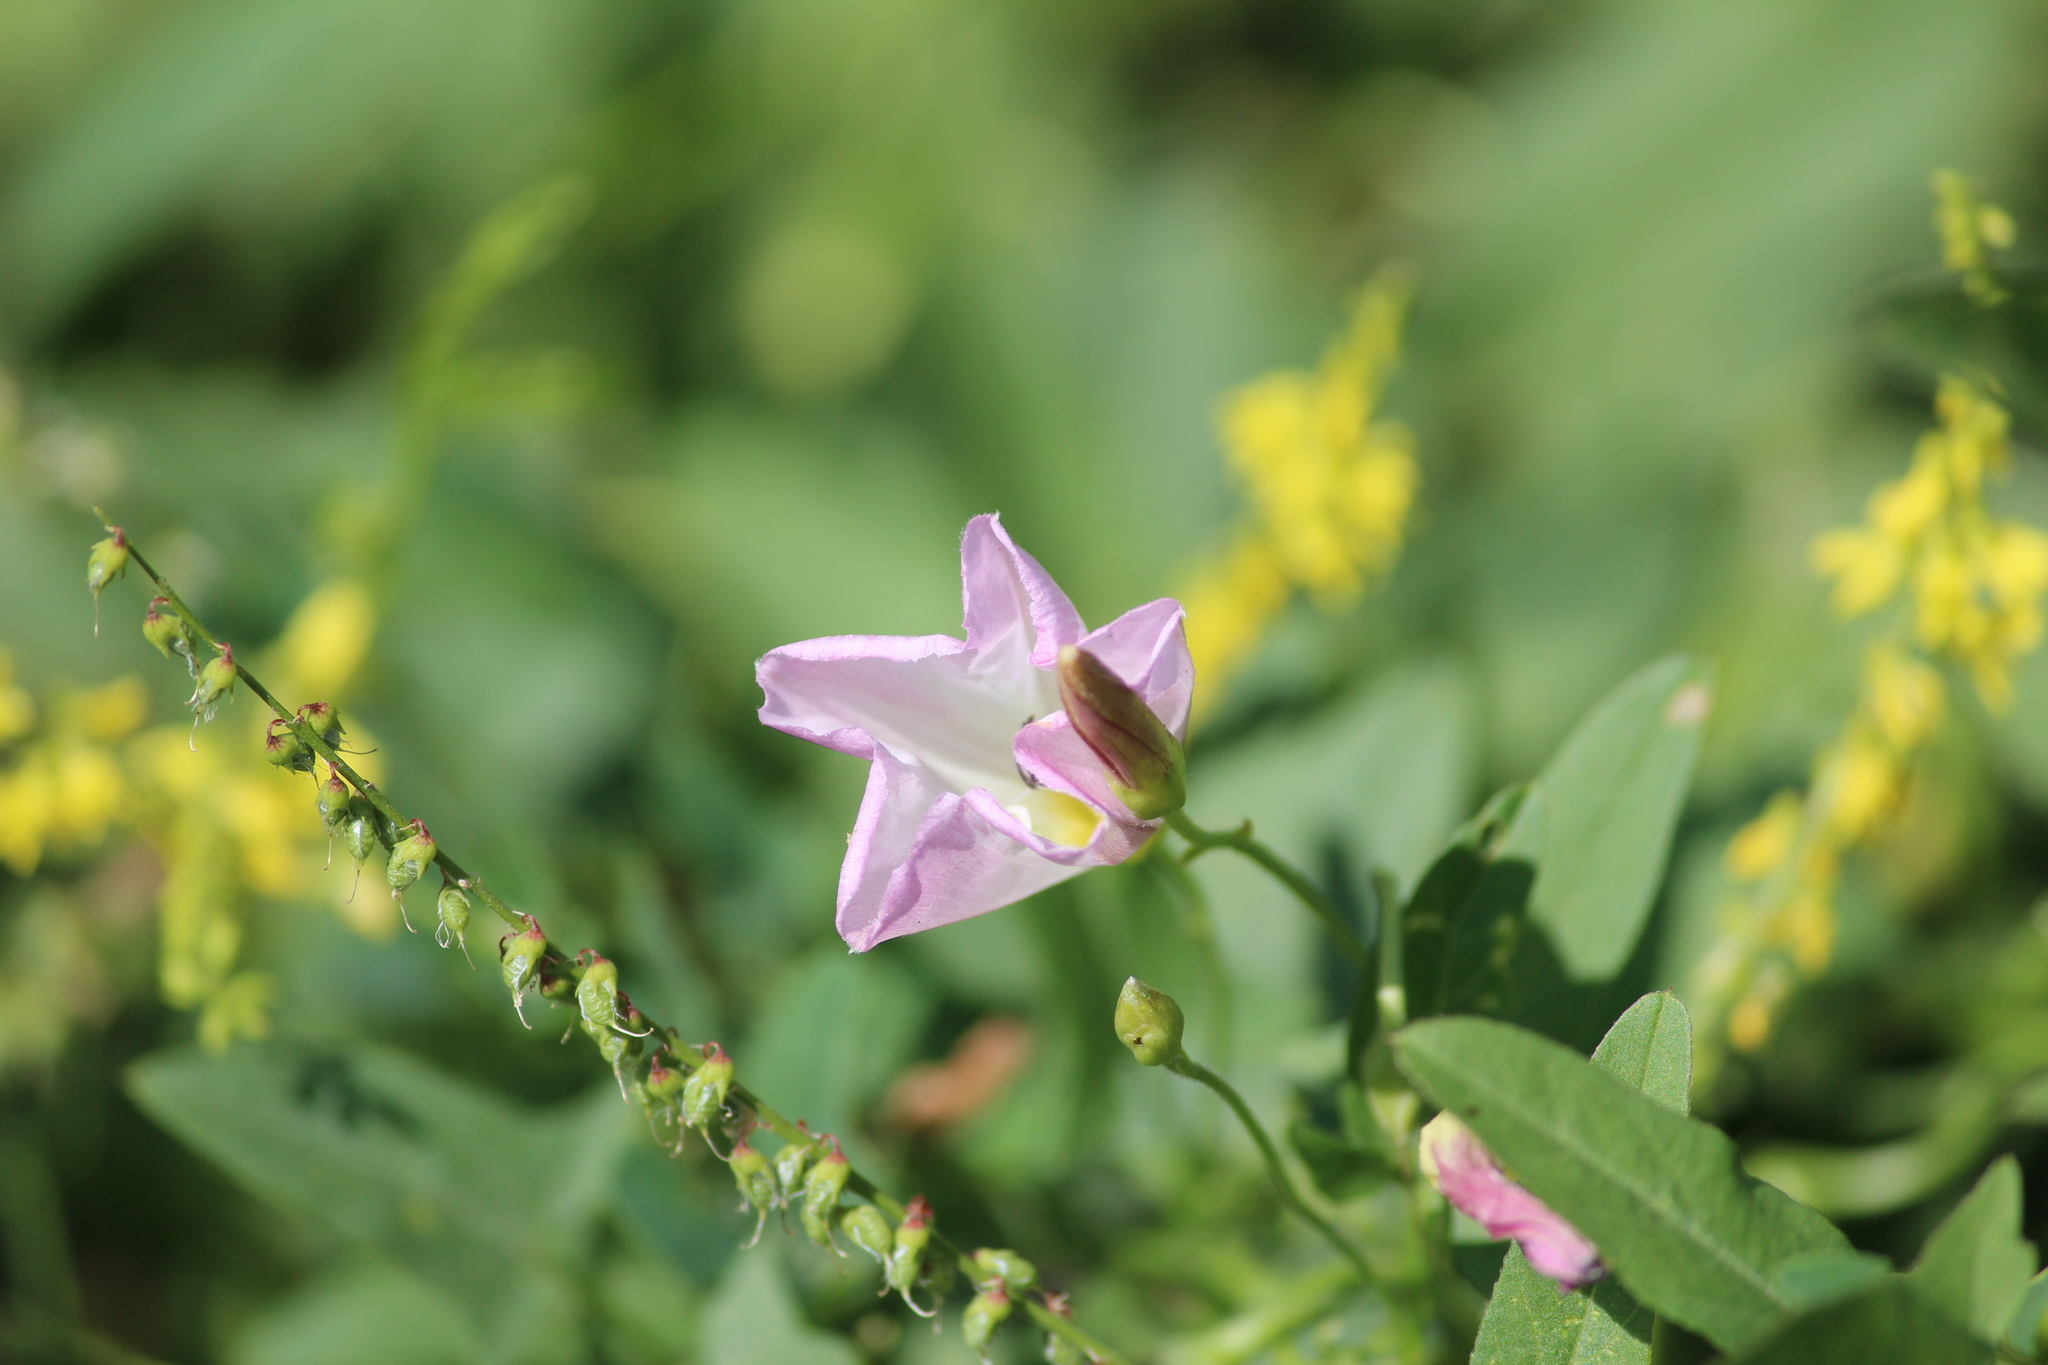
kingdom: Plantae
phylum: Tracheophyta
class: Magnoliopsida
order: Solanales
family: Convolvulaceae
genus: Convolvulus
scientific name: Convolvulus arvensis
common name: Field bindweed
